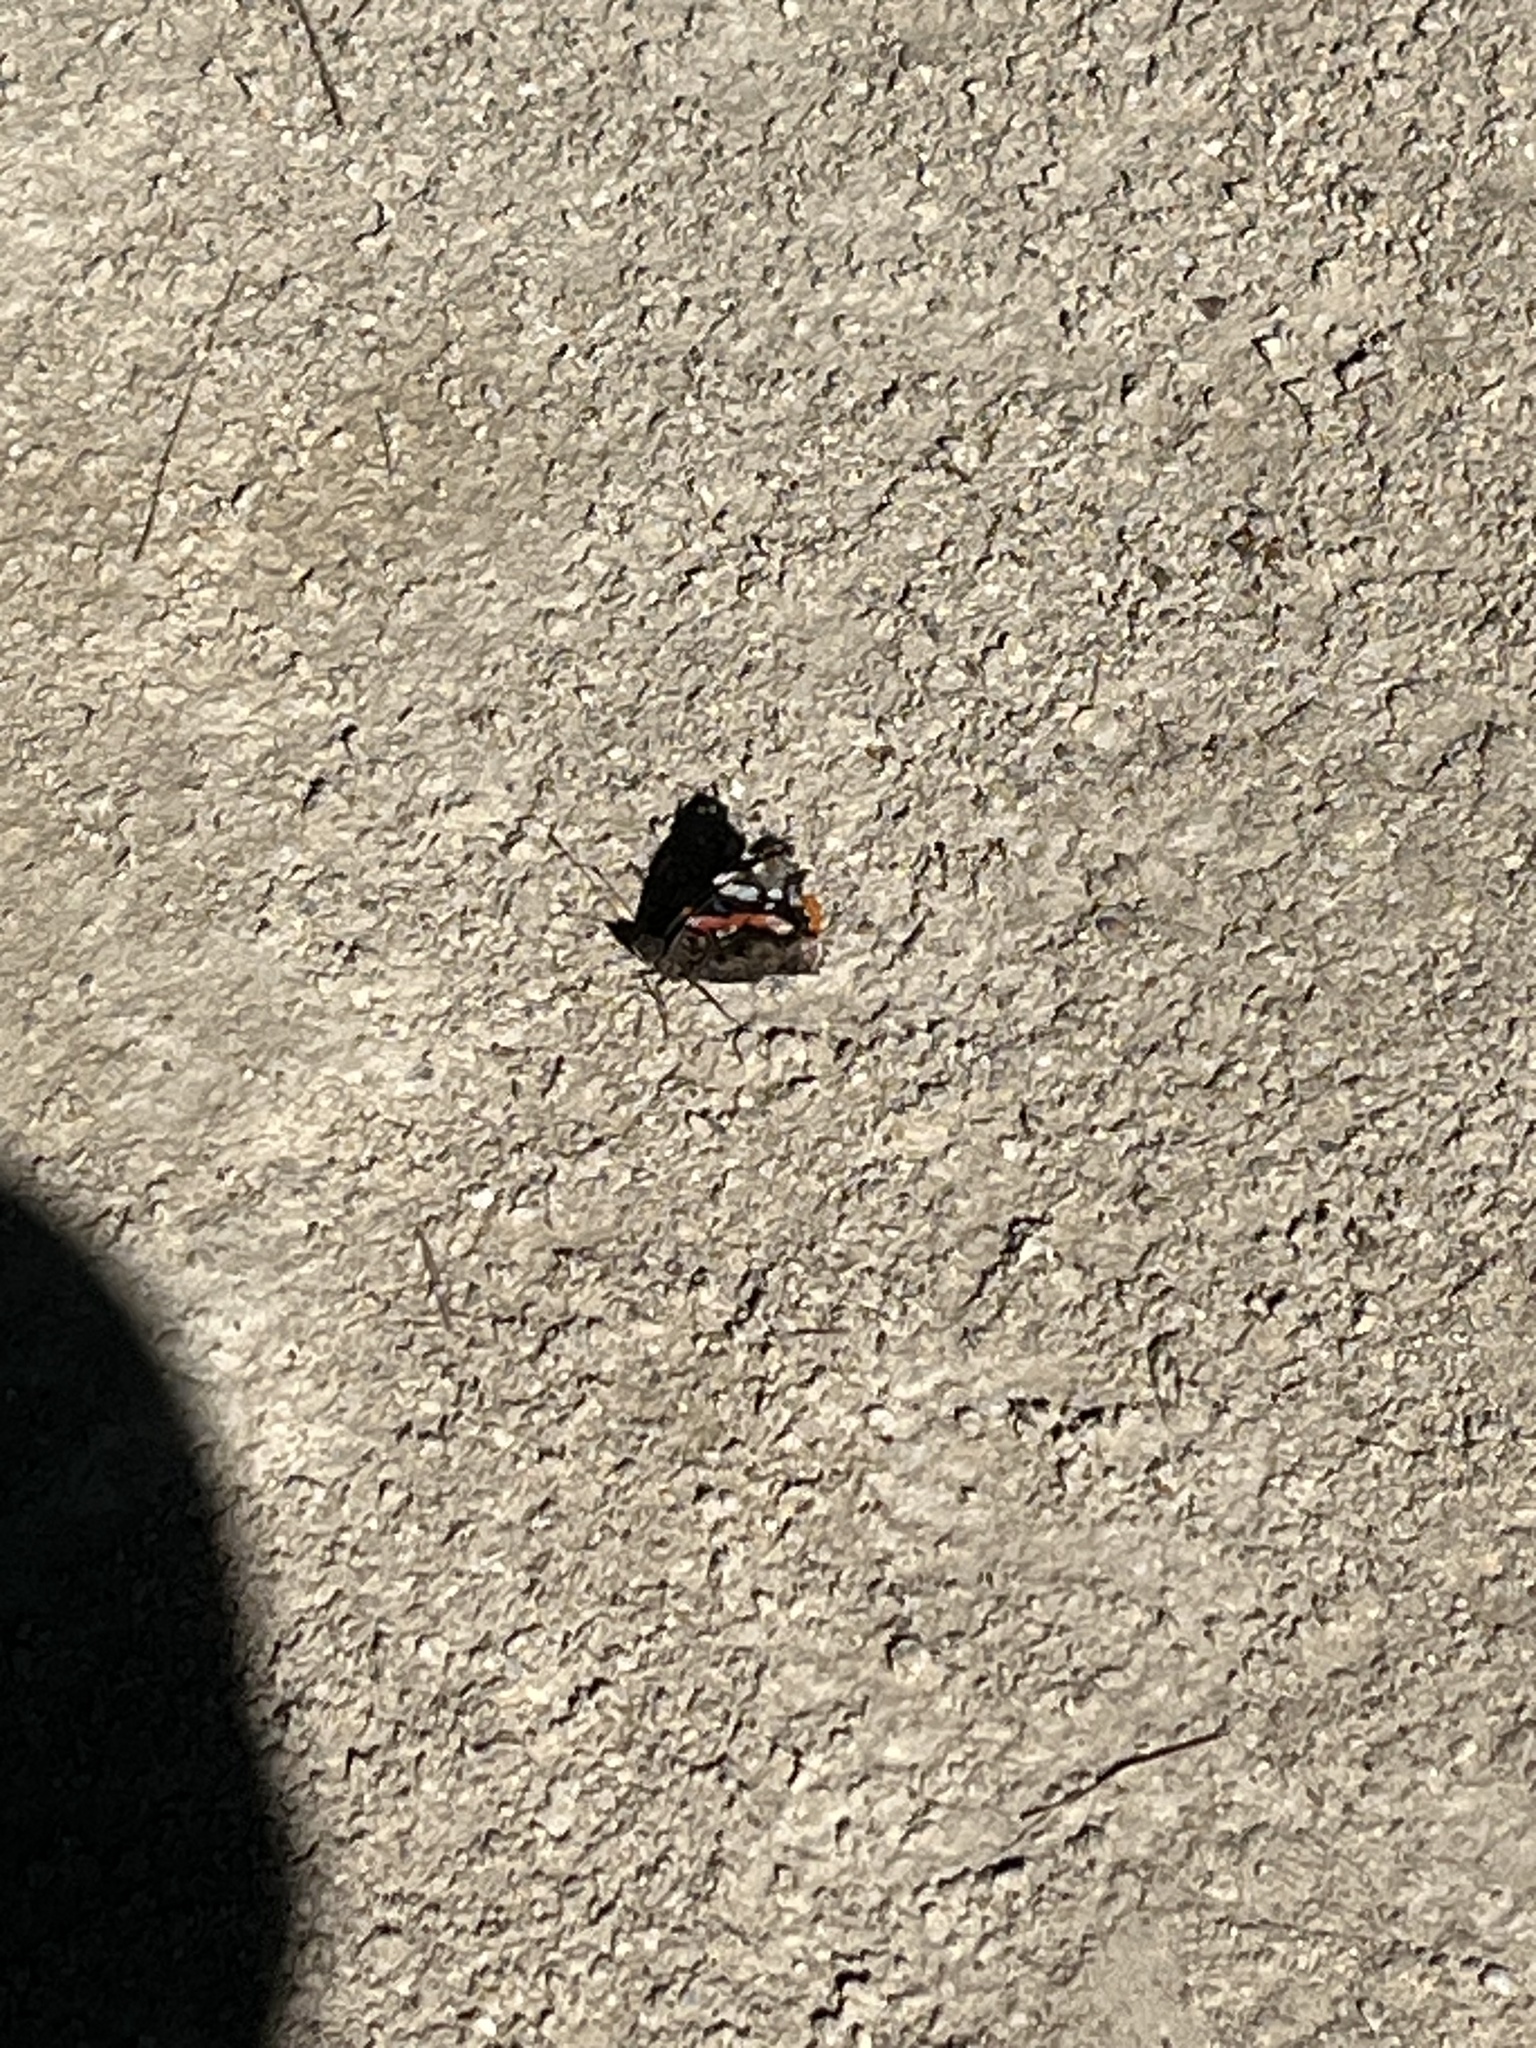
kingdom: Animalia
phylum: Arthropoda
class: Insecta
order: Lepidoptera
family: Nymphalidae
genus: Vanessa
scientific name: Vanessa atalanta
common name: Red admiral
